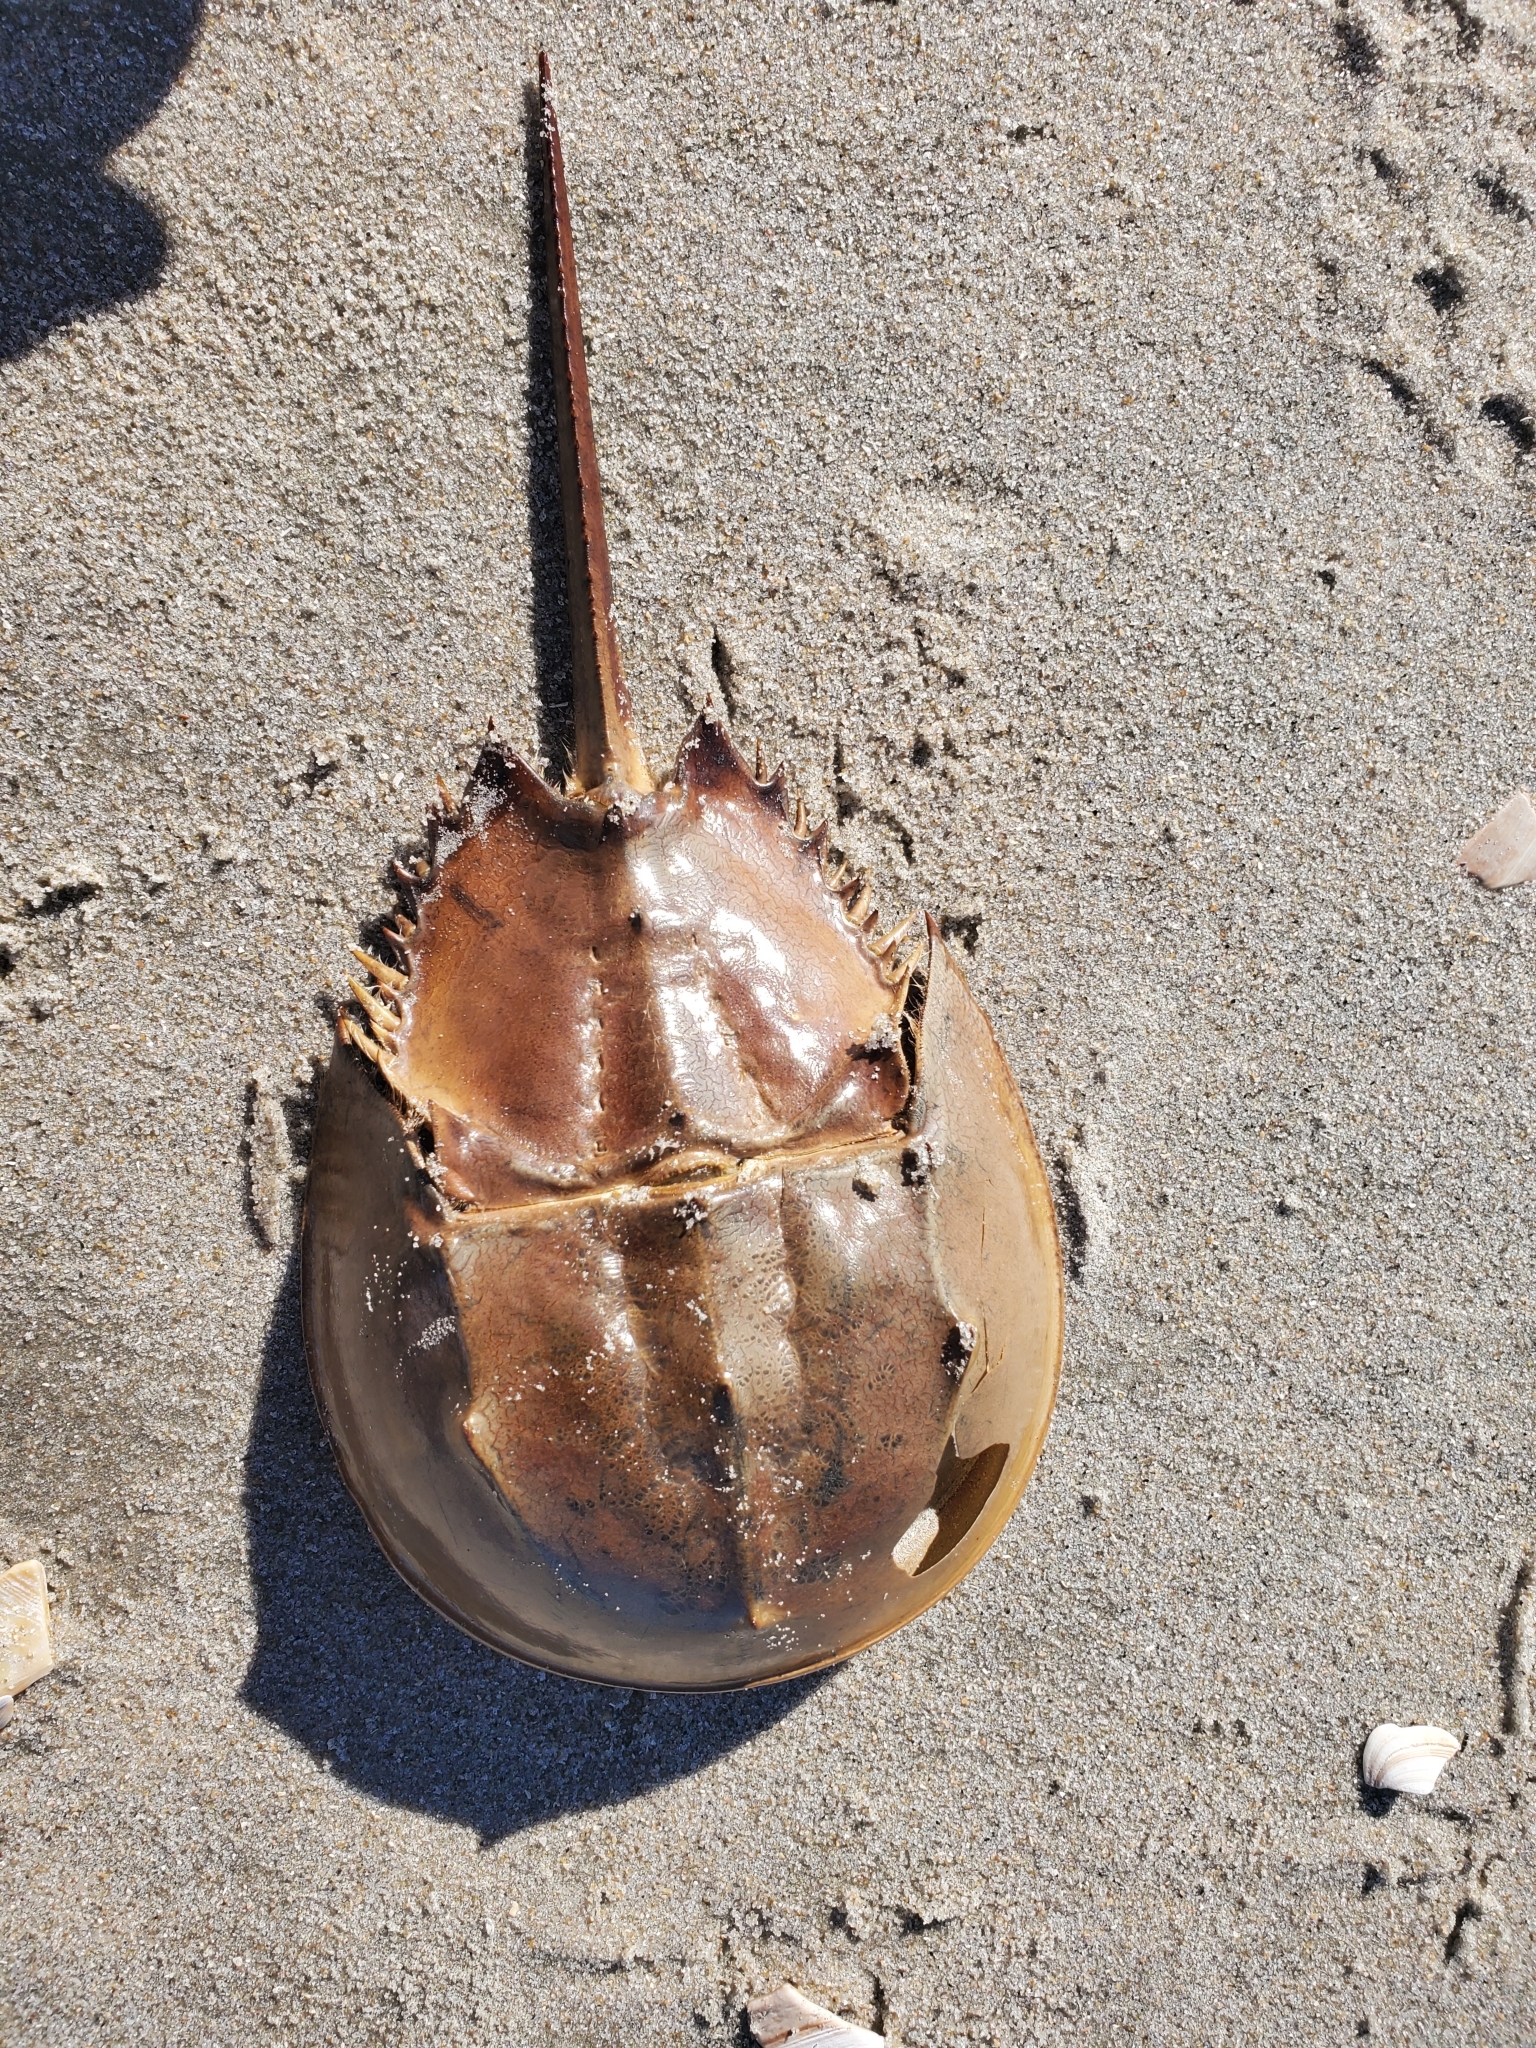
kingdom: Animalia
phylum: Arthropoda
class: Merostomata
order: Xiphosurida
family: Limulidae
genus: Limulus
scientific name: Limulus polyphemus
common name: Horseshoe crab
